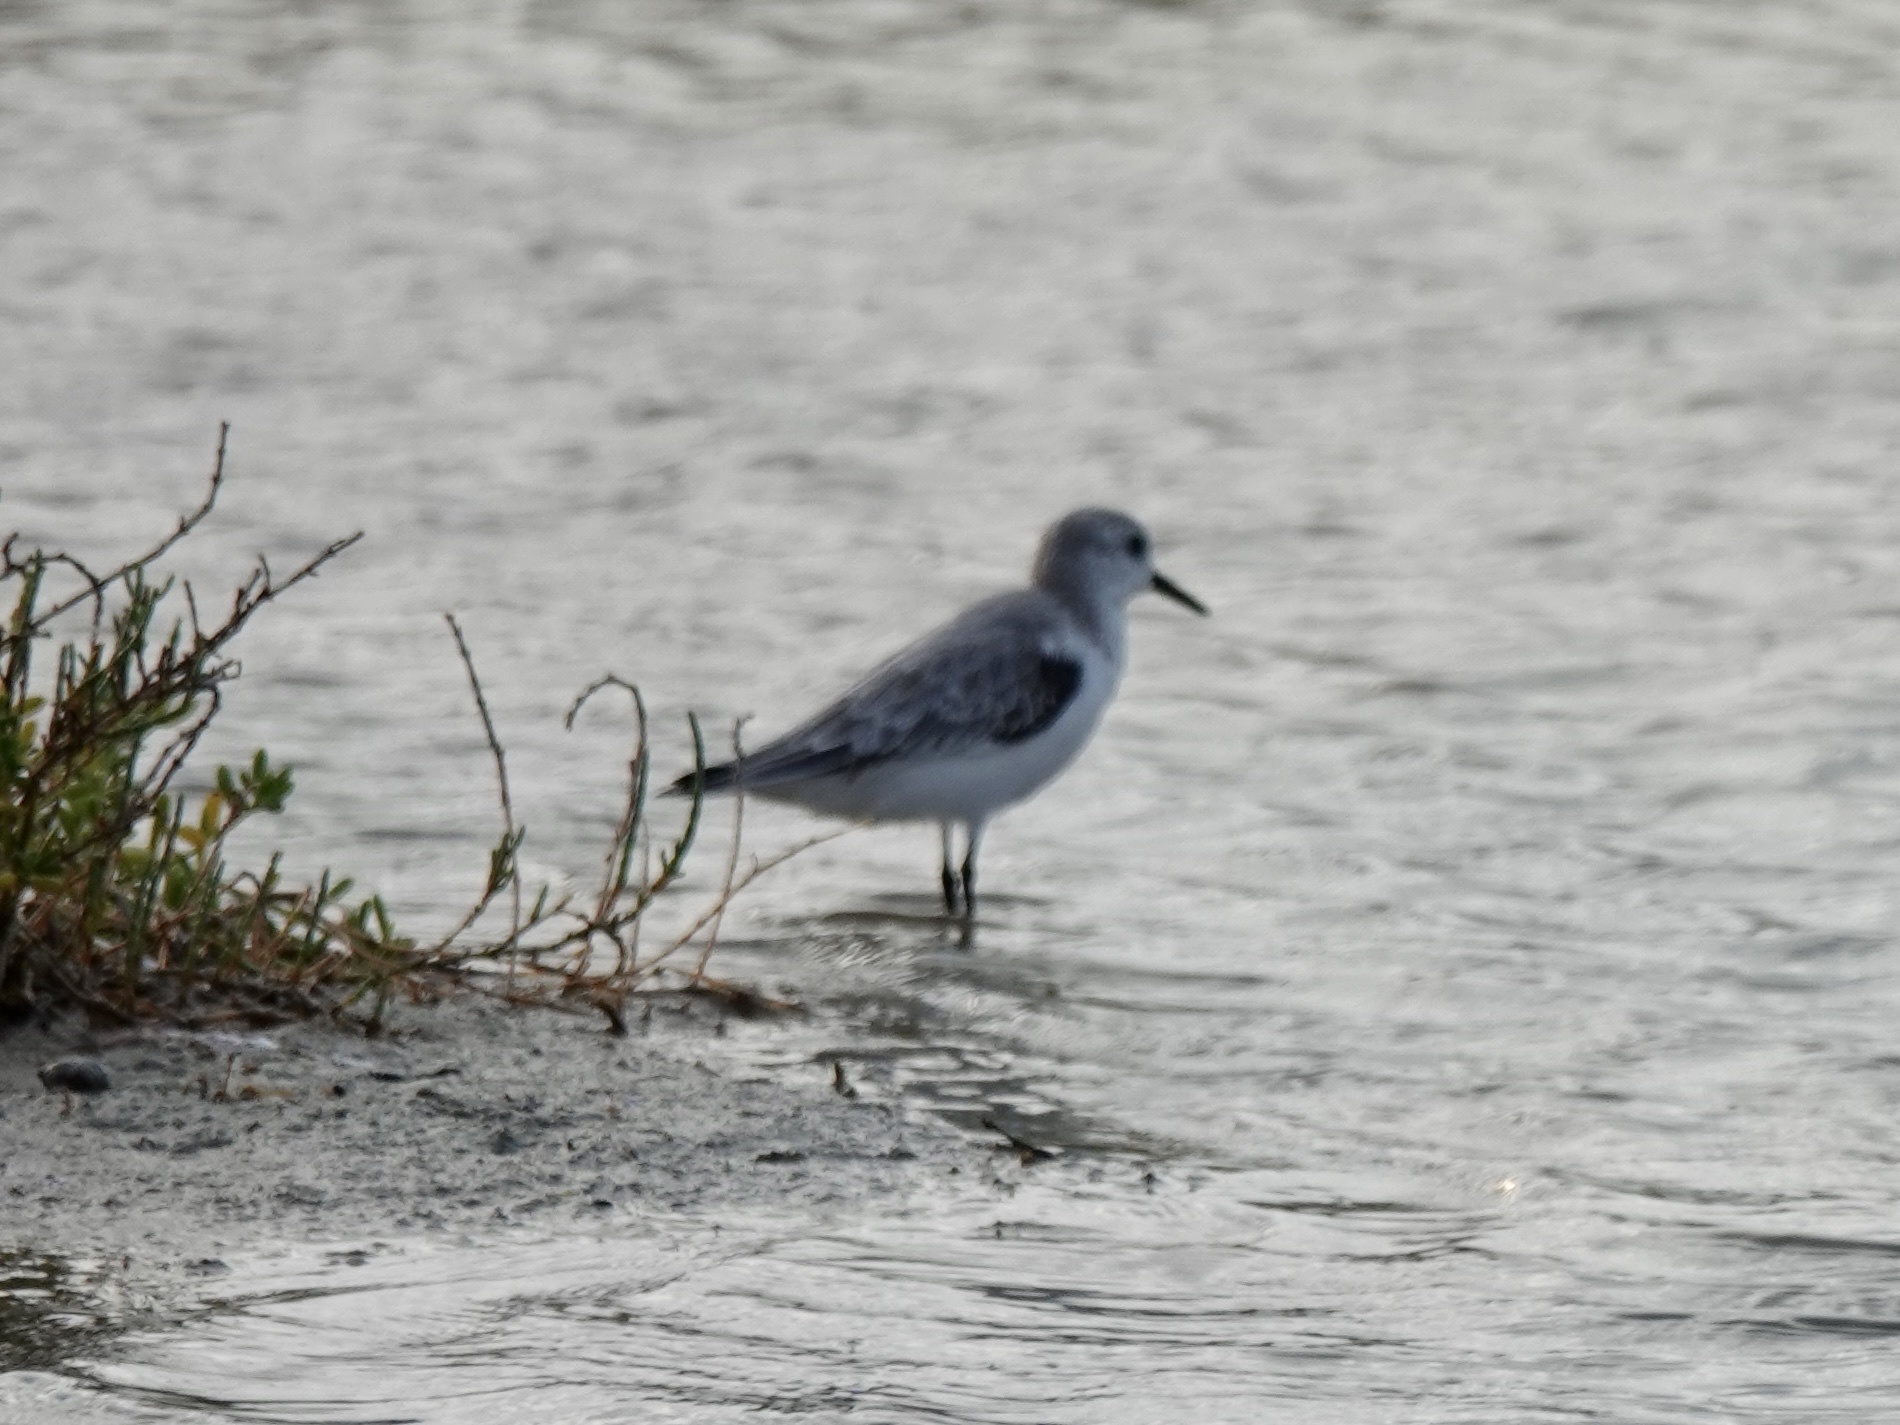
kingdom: Animalia
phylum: Chordata
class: Aves
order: Charadriiformes
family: Scolopacidae
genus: Calidris
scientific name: Calidris alba
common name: Sanderling
